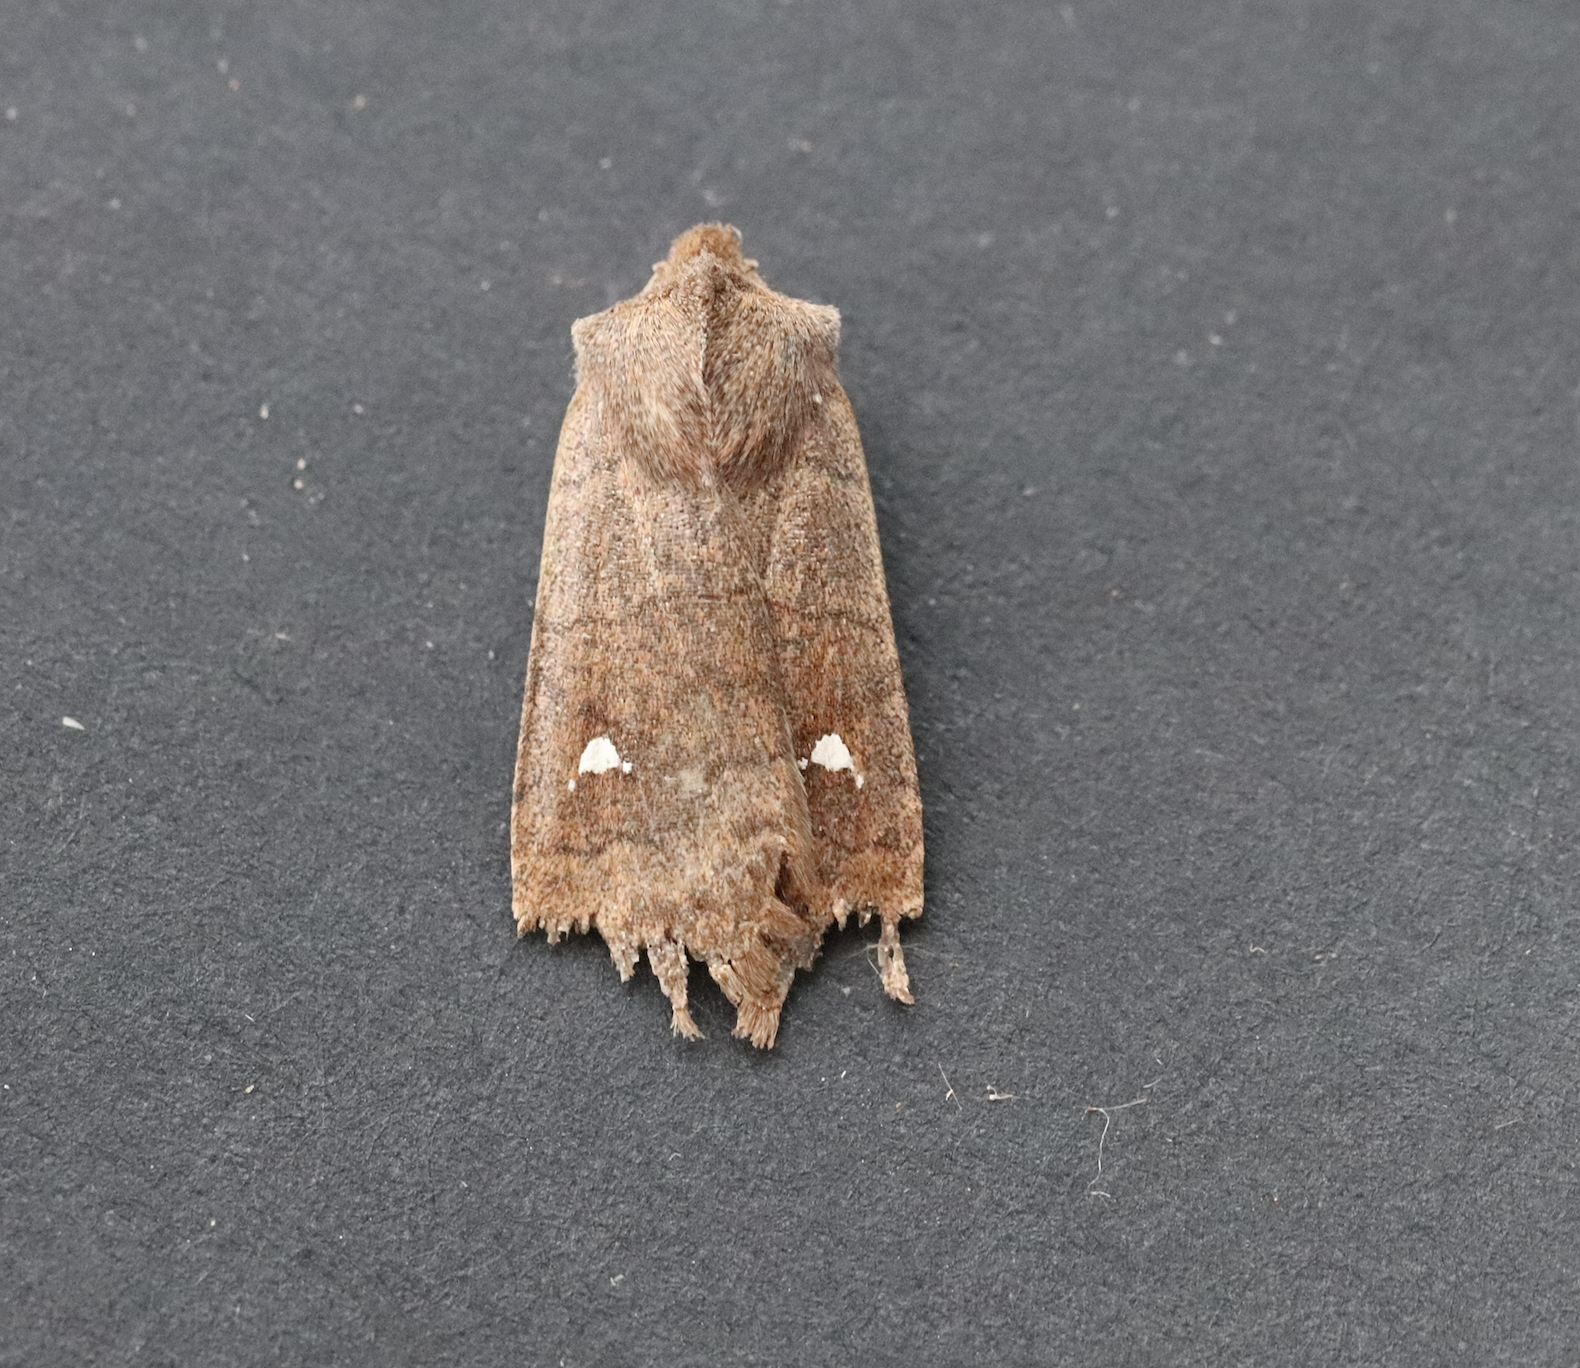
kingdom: Animalia
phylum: Arthropoda
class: Insecta
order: Lepidoptera
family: Noctuidae
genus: Eupsilia
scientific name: Eupsilia transversa
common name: Satellite
